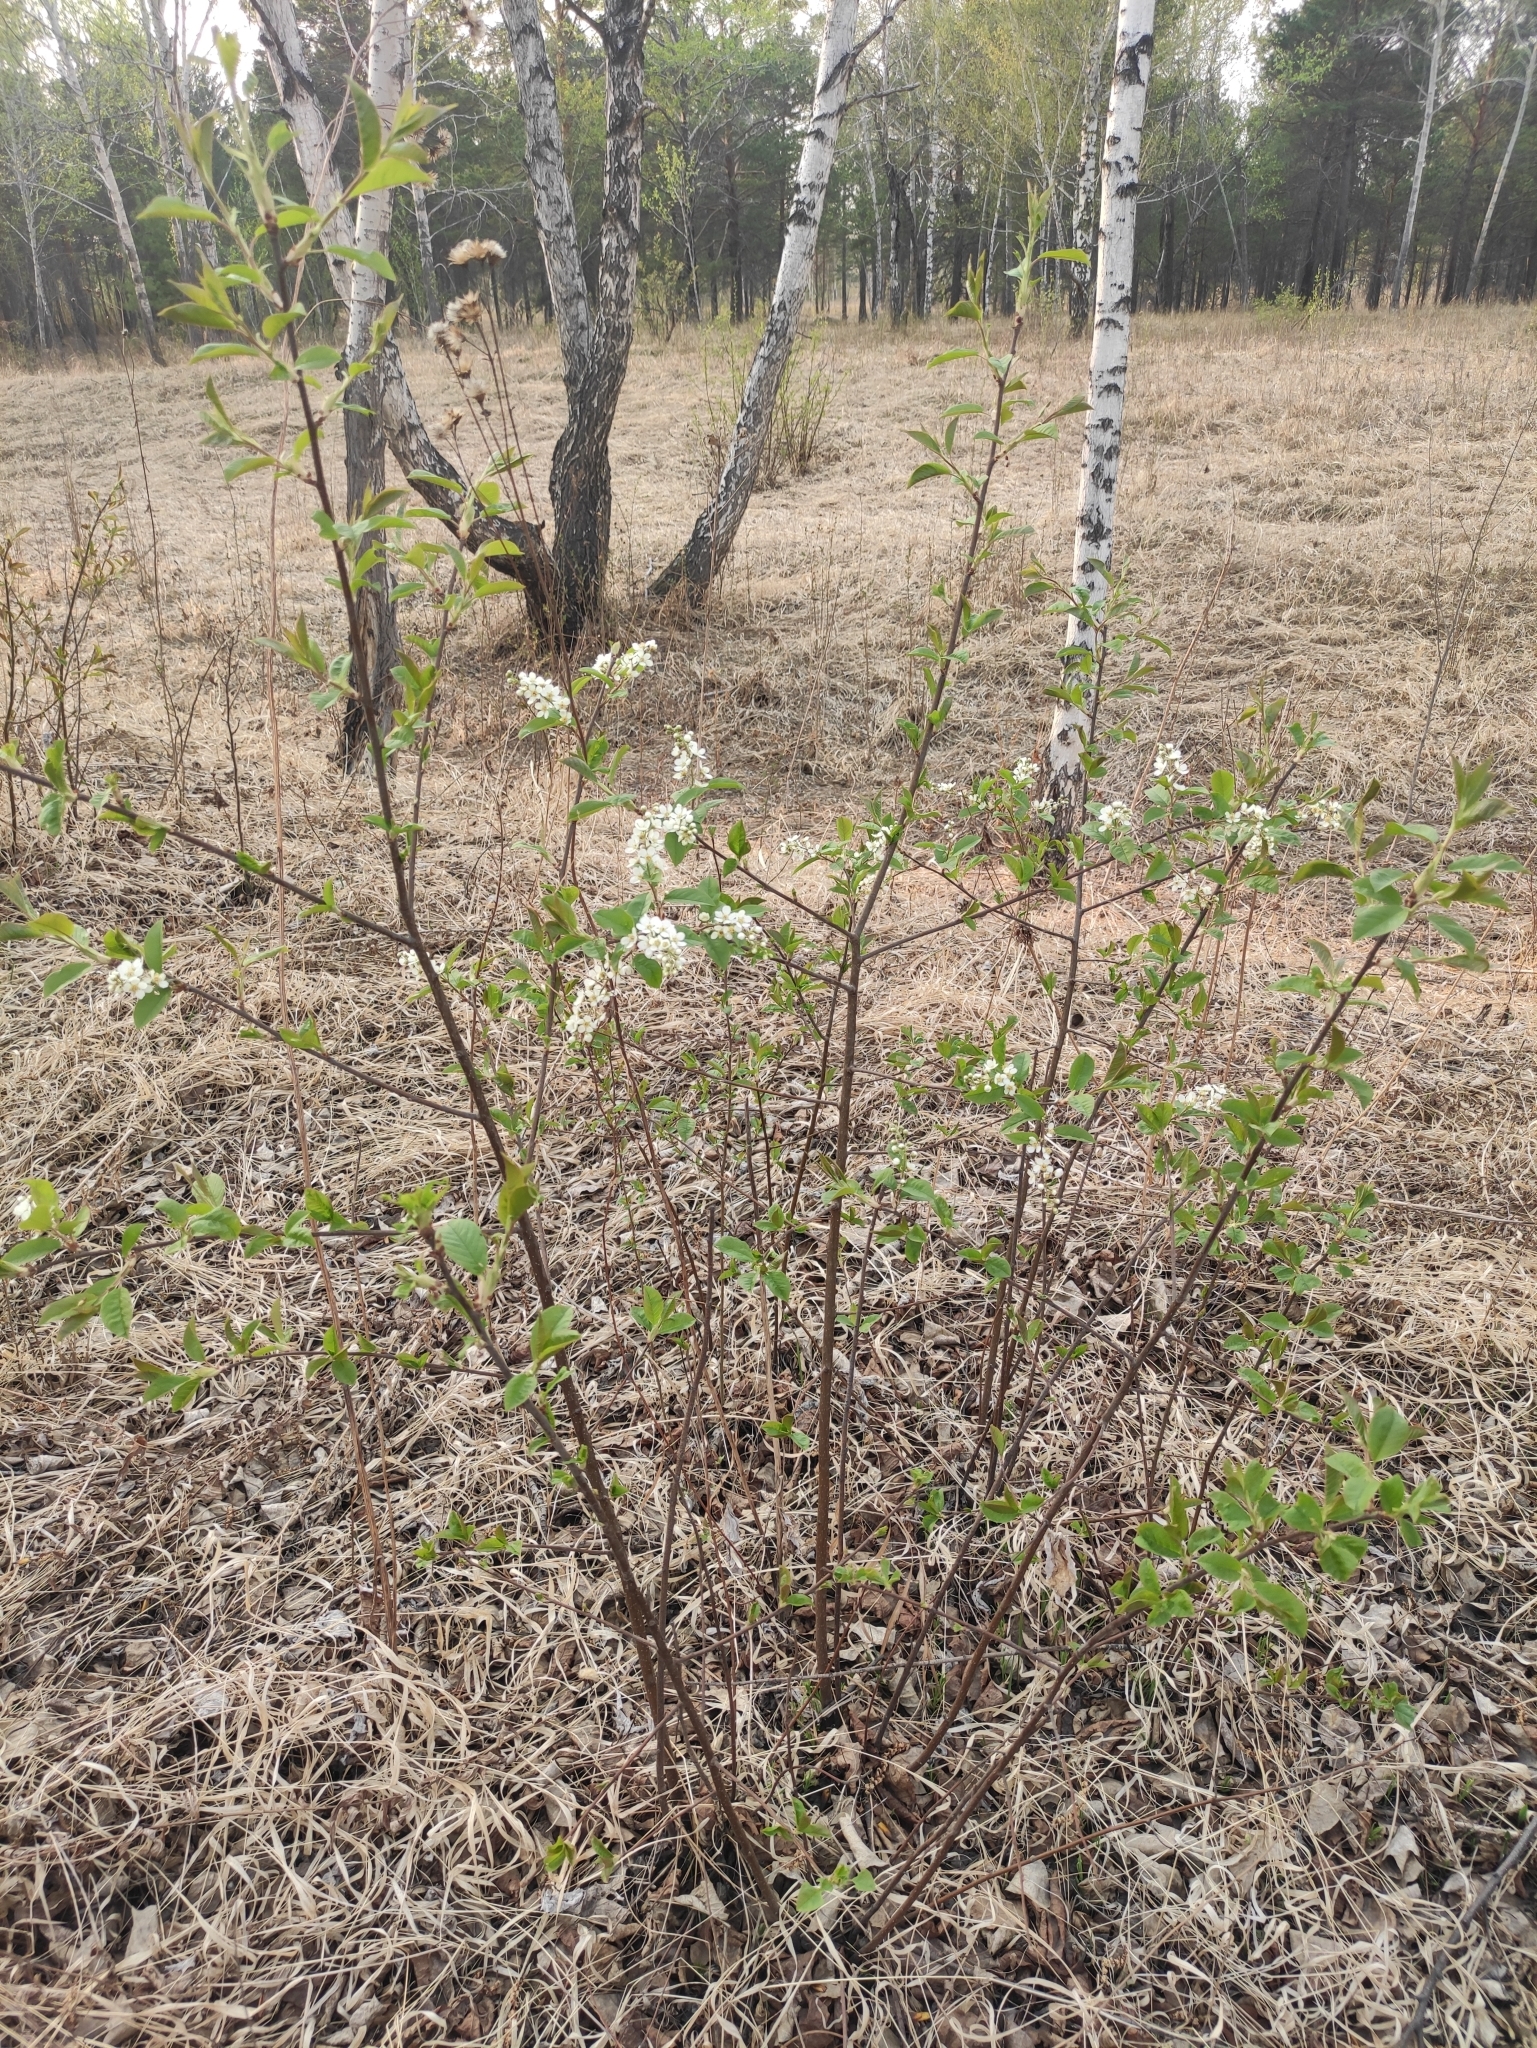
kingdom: Plantae
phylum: Tracheophyta
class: Magnoliopsida
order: Rosales
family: Rosaceae
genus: Prunus
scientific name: Prunus padus
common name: Bird cherry
